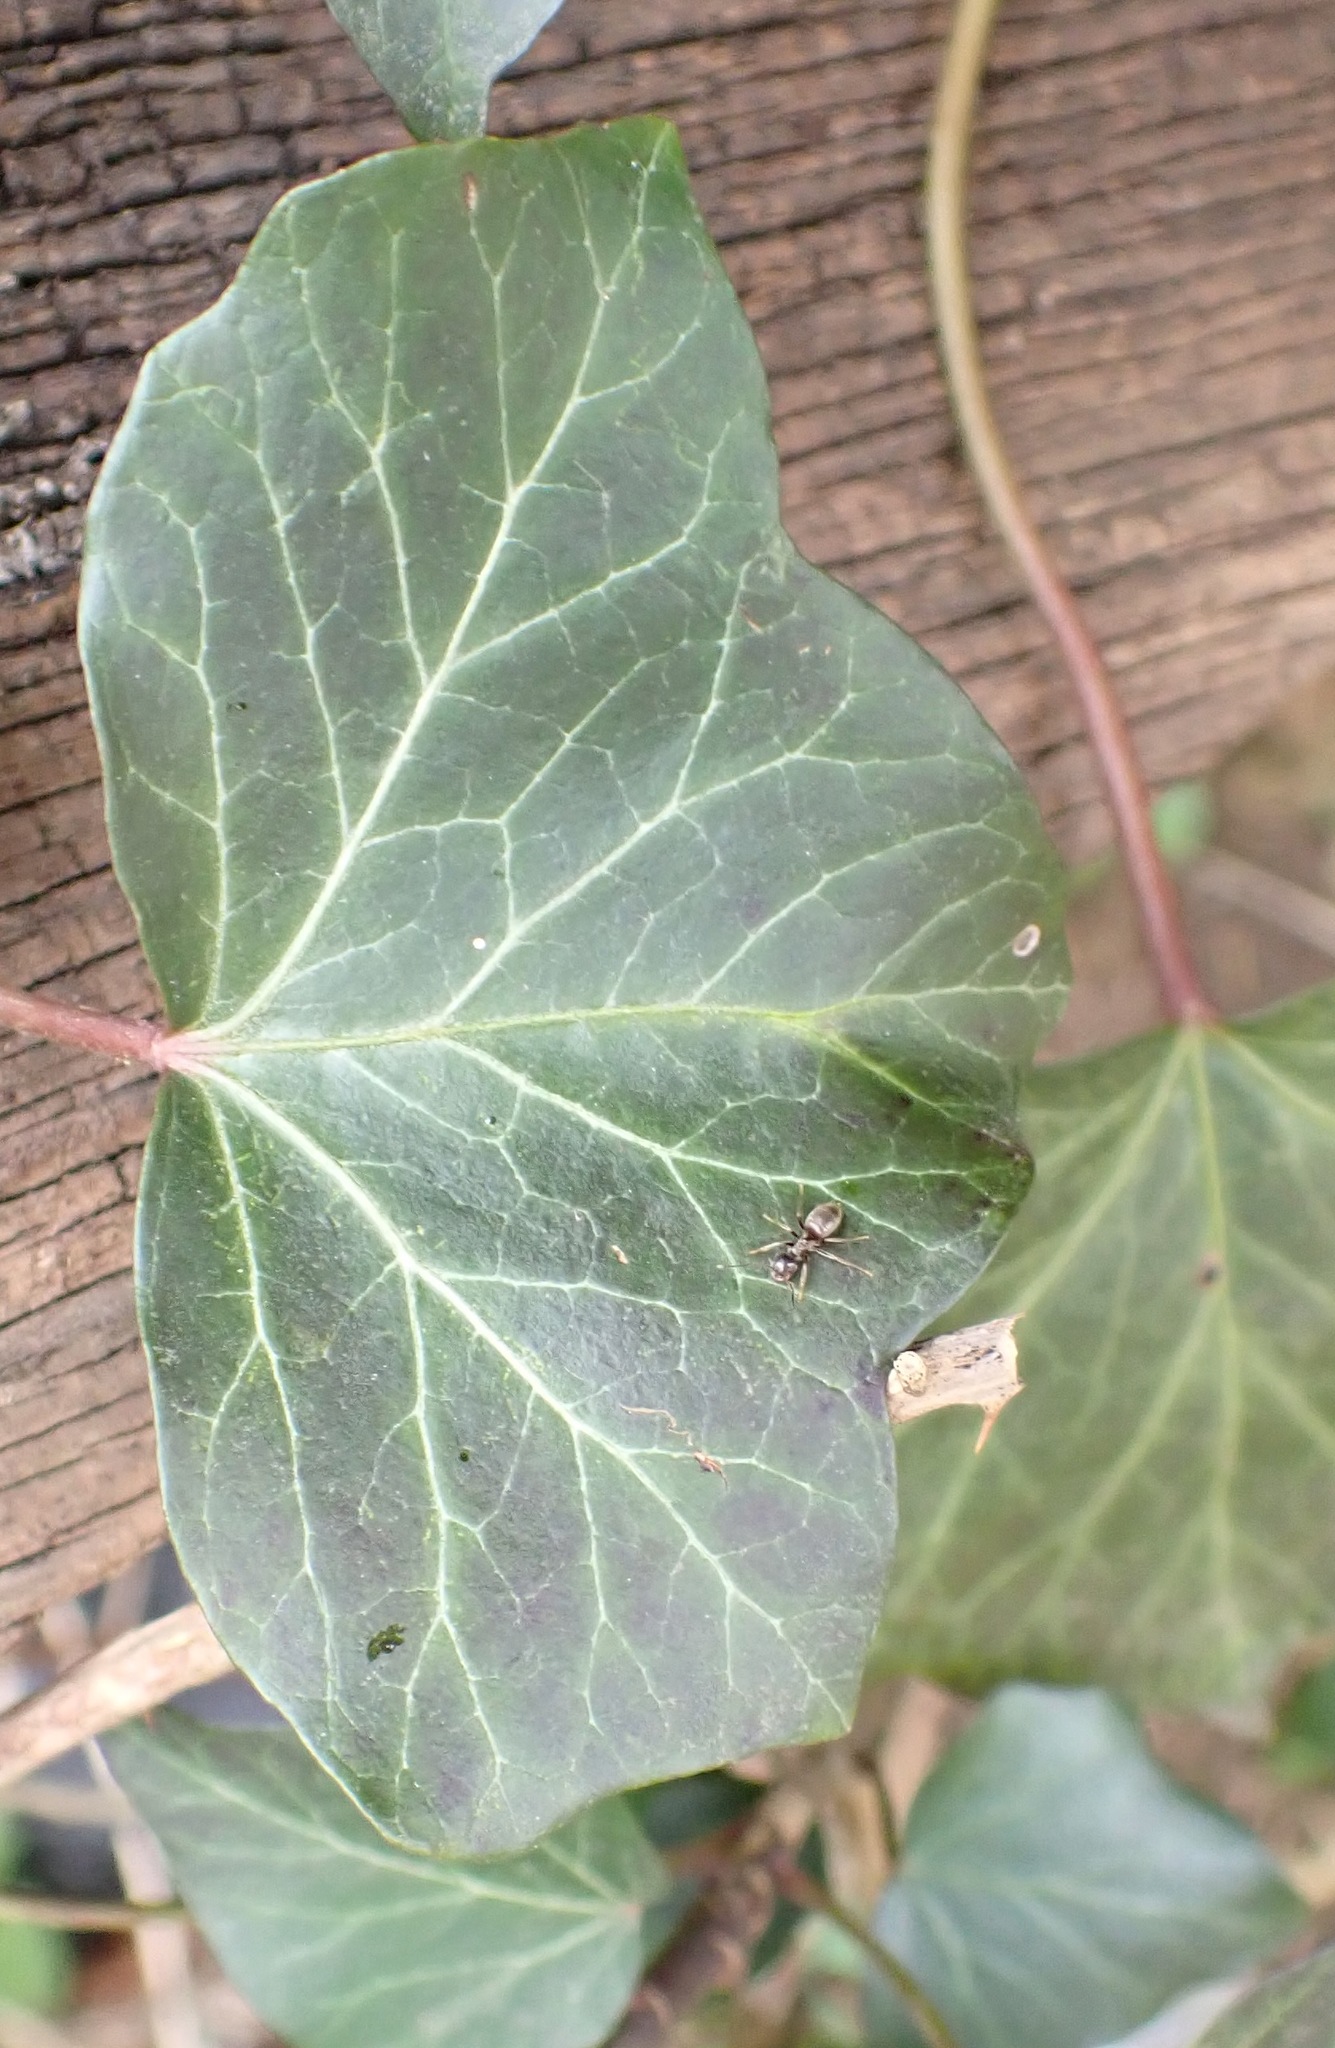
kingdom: Plantae
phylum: Tracheophyta
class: Magnoliopsida
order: Apiales
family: Araliaceae
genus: Hedera
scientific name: Hedera helix
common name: Ivy
